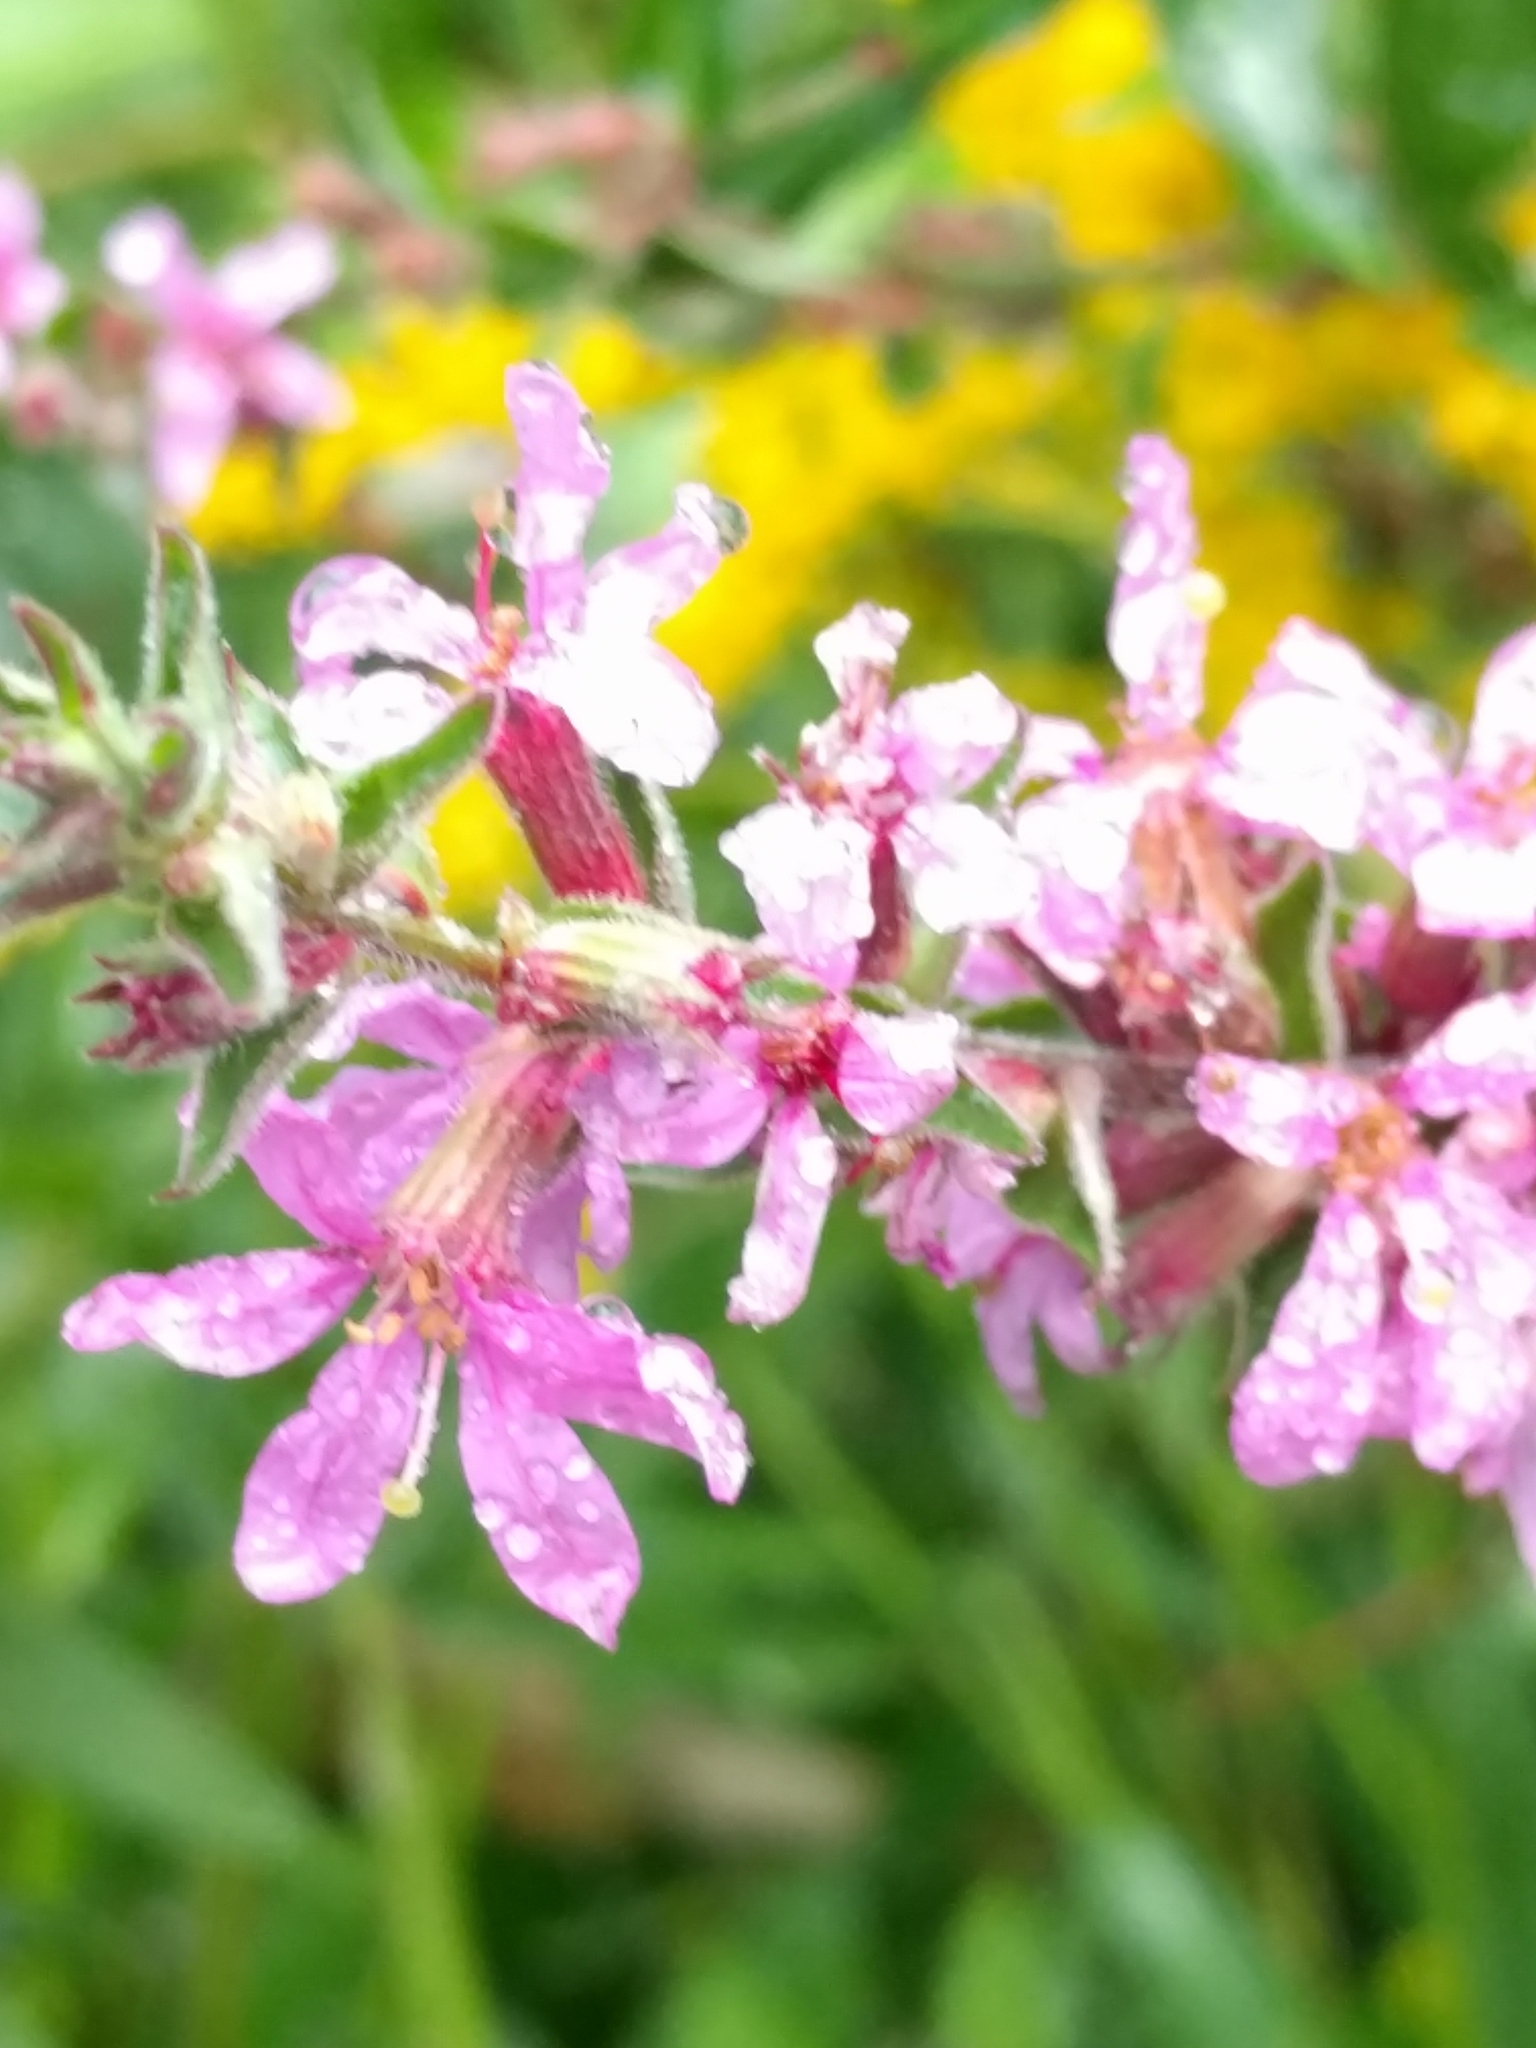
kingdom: Plantae
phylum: Tracheophyta
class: Magnoliopsida
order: Myrtales
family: Lythraceae
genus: Lythrum
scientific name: Lythrum salicaria
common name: Purple loosestrife
